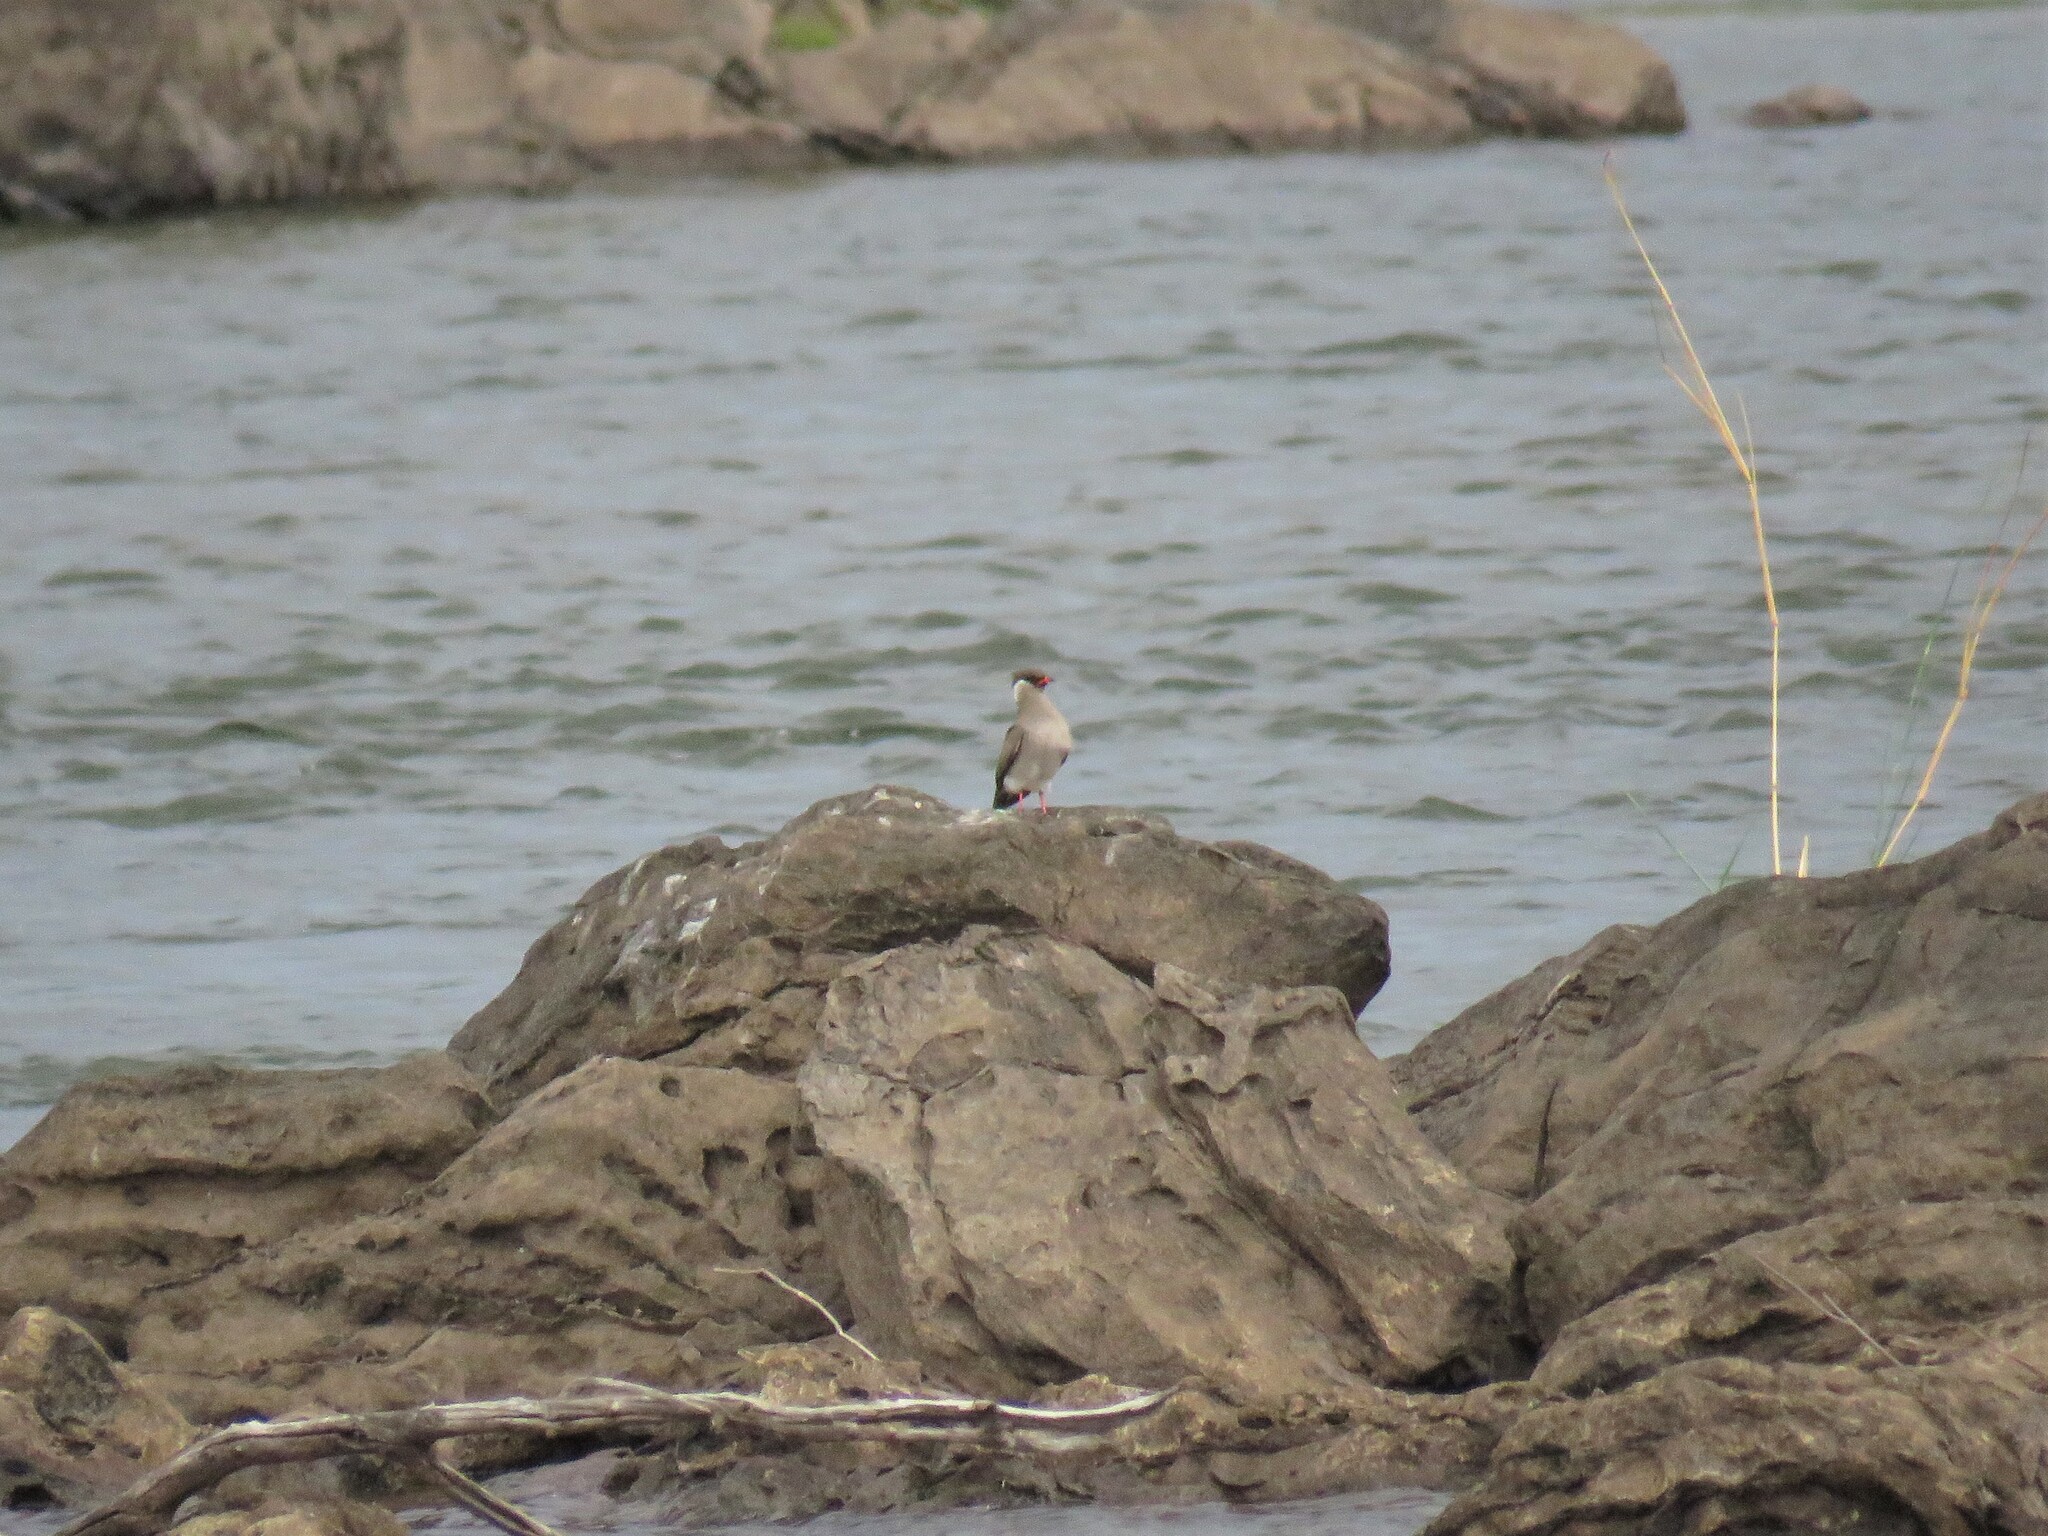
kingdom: Animalia
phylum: Chordata
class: Aves
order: Charadriiformes
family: Glareolidae
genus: Glareola
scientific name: Glareola nuchalis
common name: Rock pratincole
